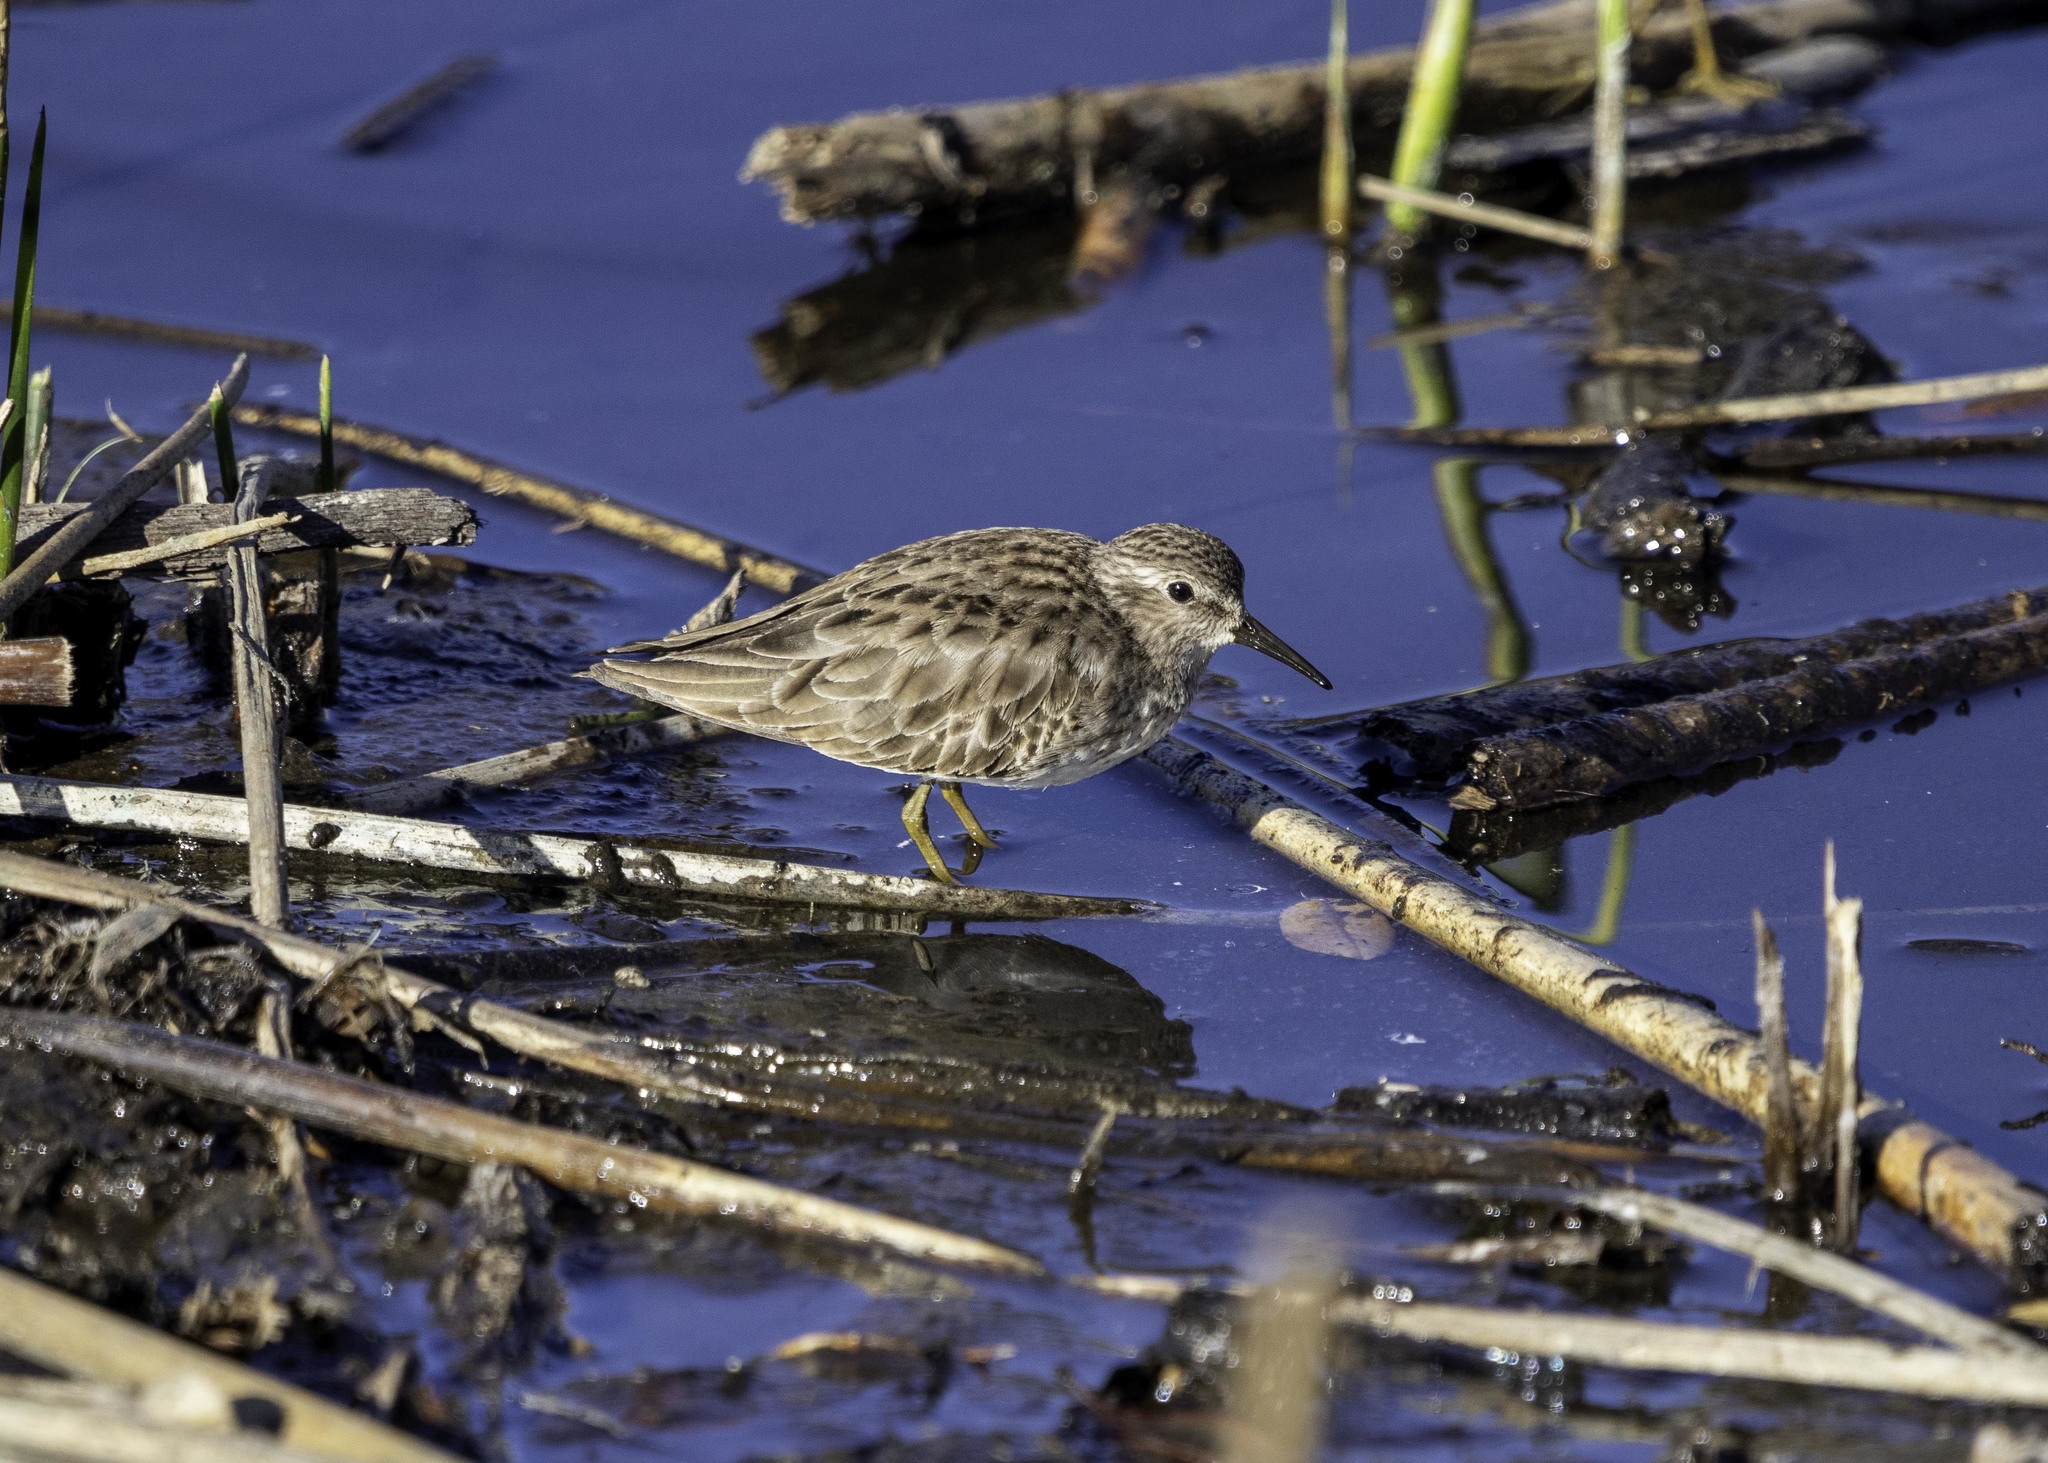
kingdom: Animalia
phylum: Chordata
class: Aves
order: Charadriiformes
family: Scolopacidae
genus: Calidris
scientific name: Calidris minutilla
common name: Least sandpiper
